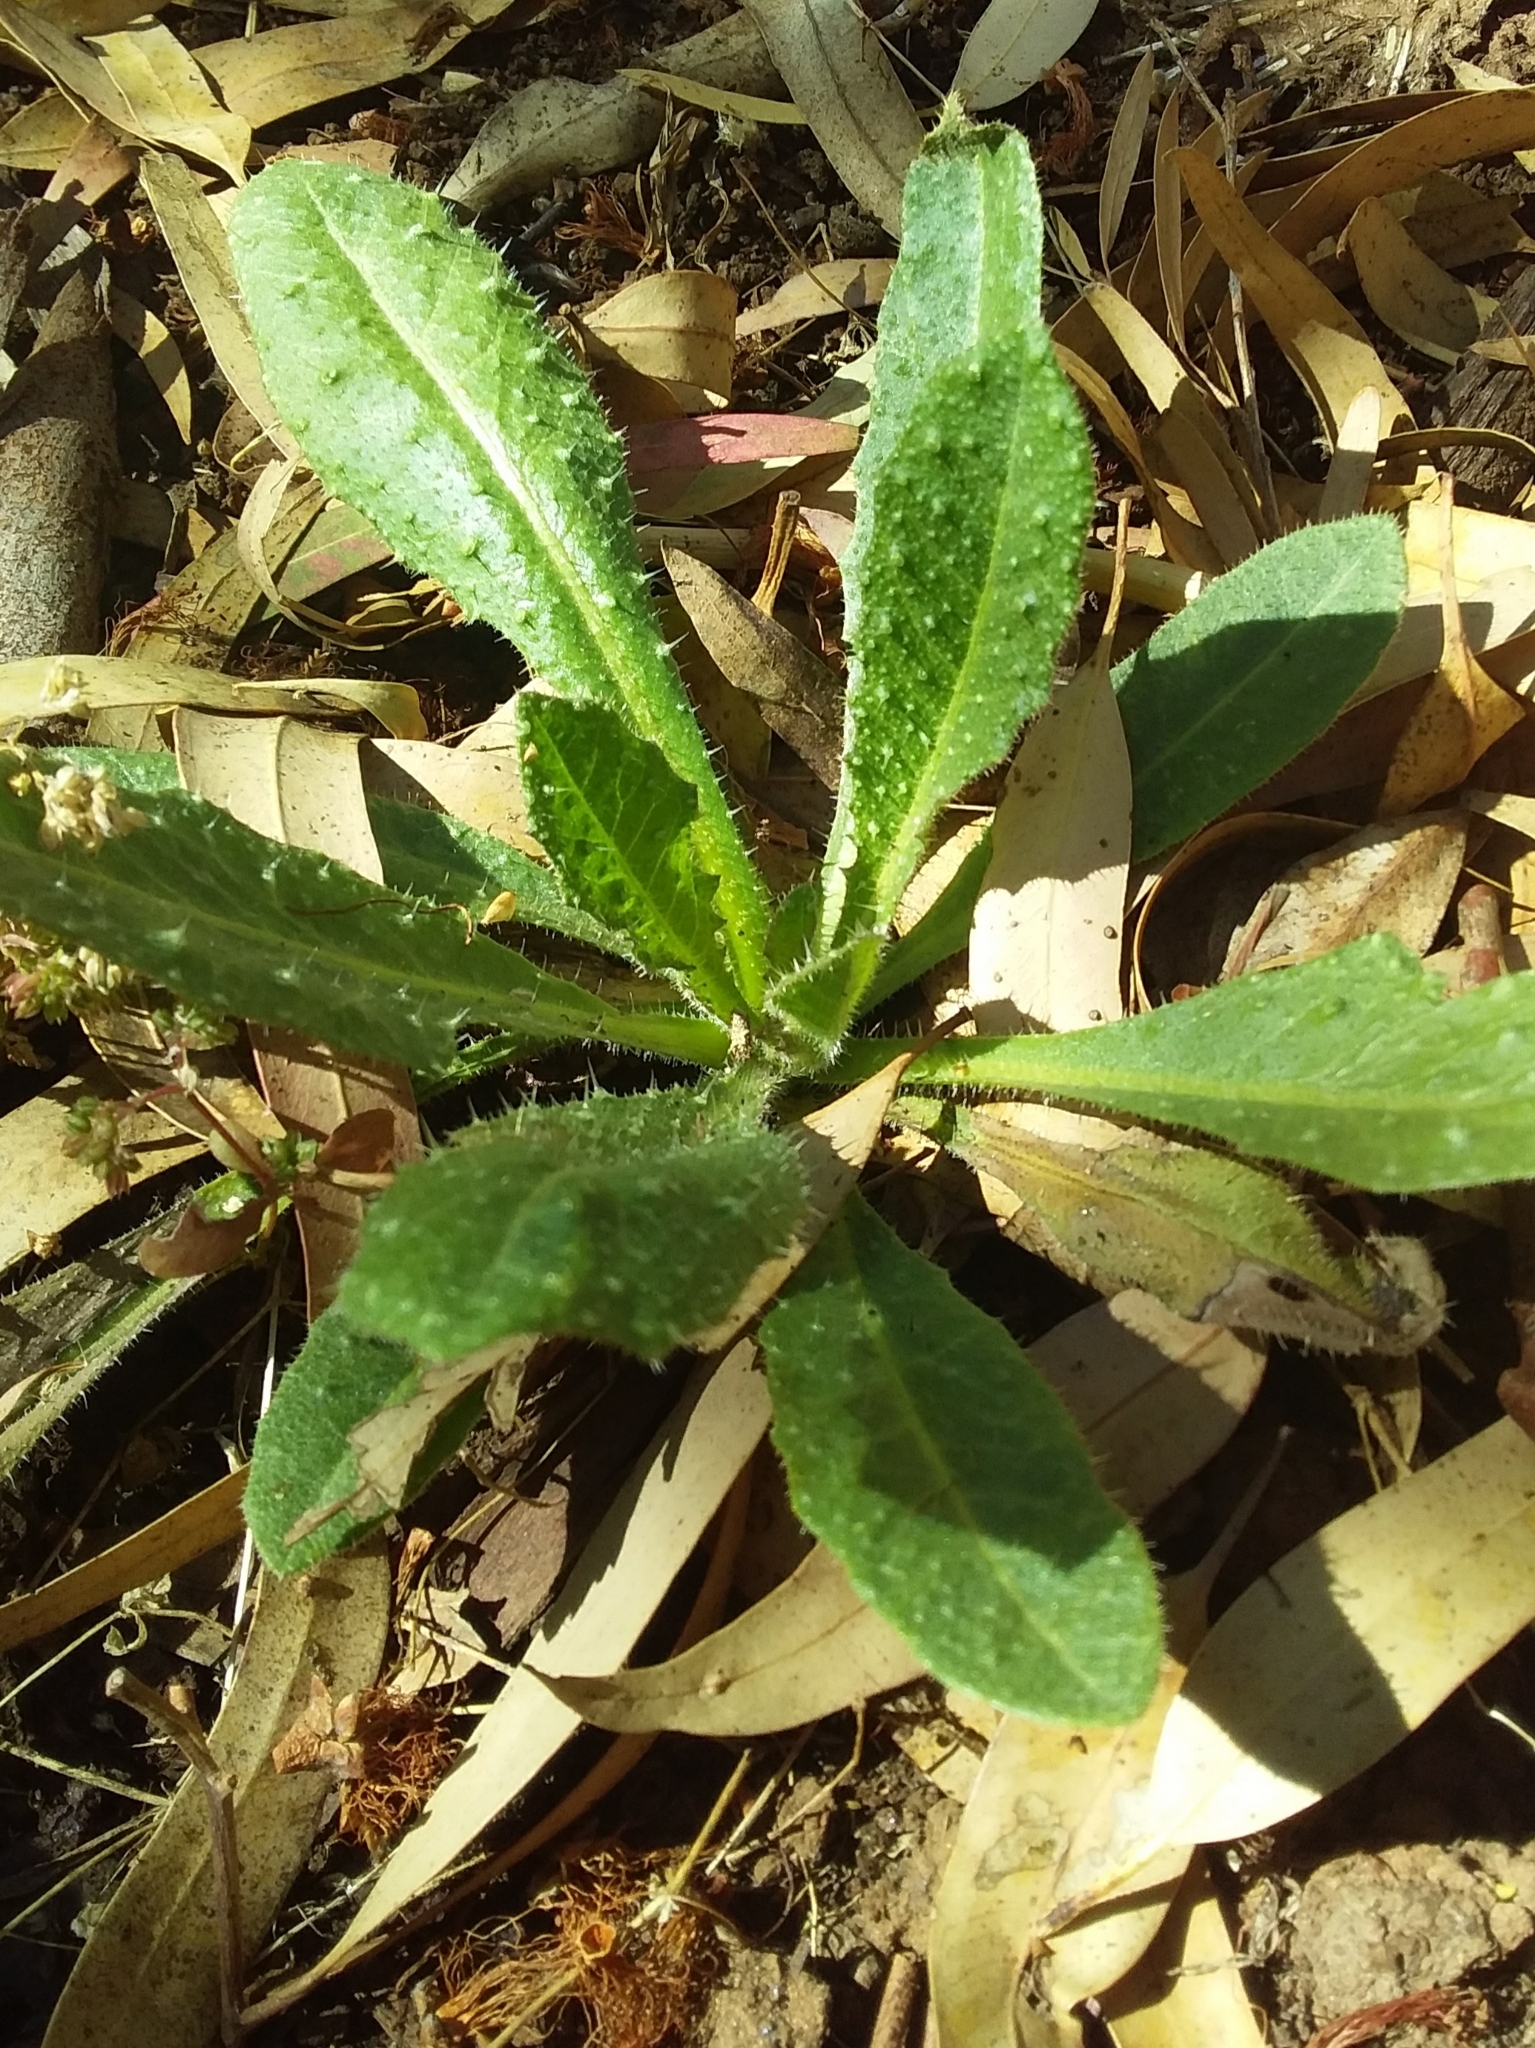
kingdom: Plantae
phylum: Tracheophyta
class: Magnoliopsida
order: Asterales
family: Asteraceae
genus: Helminthotheca
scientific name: Helminthotheca echioides
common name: Ox-tongue
